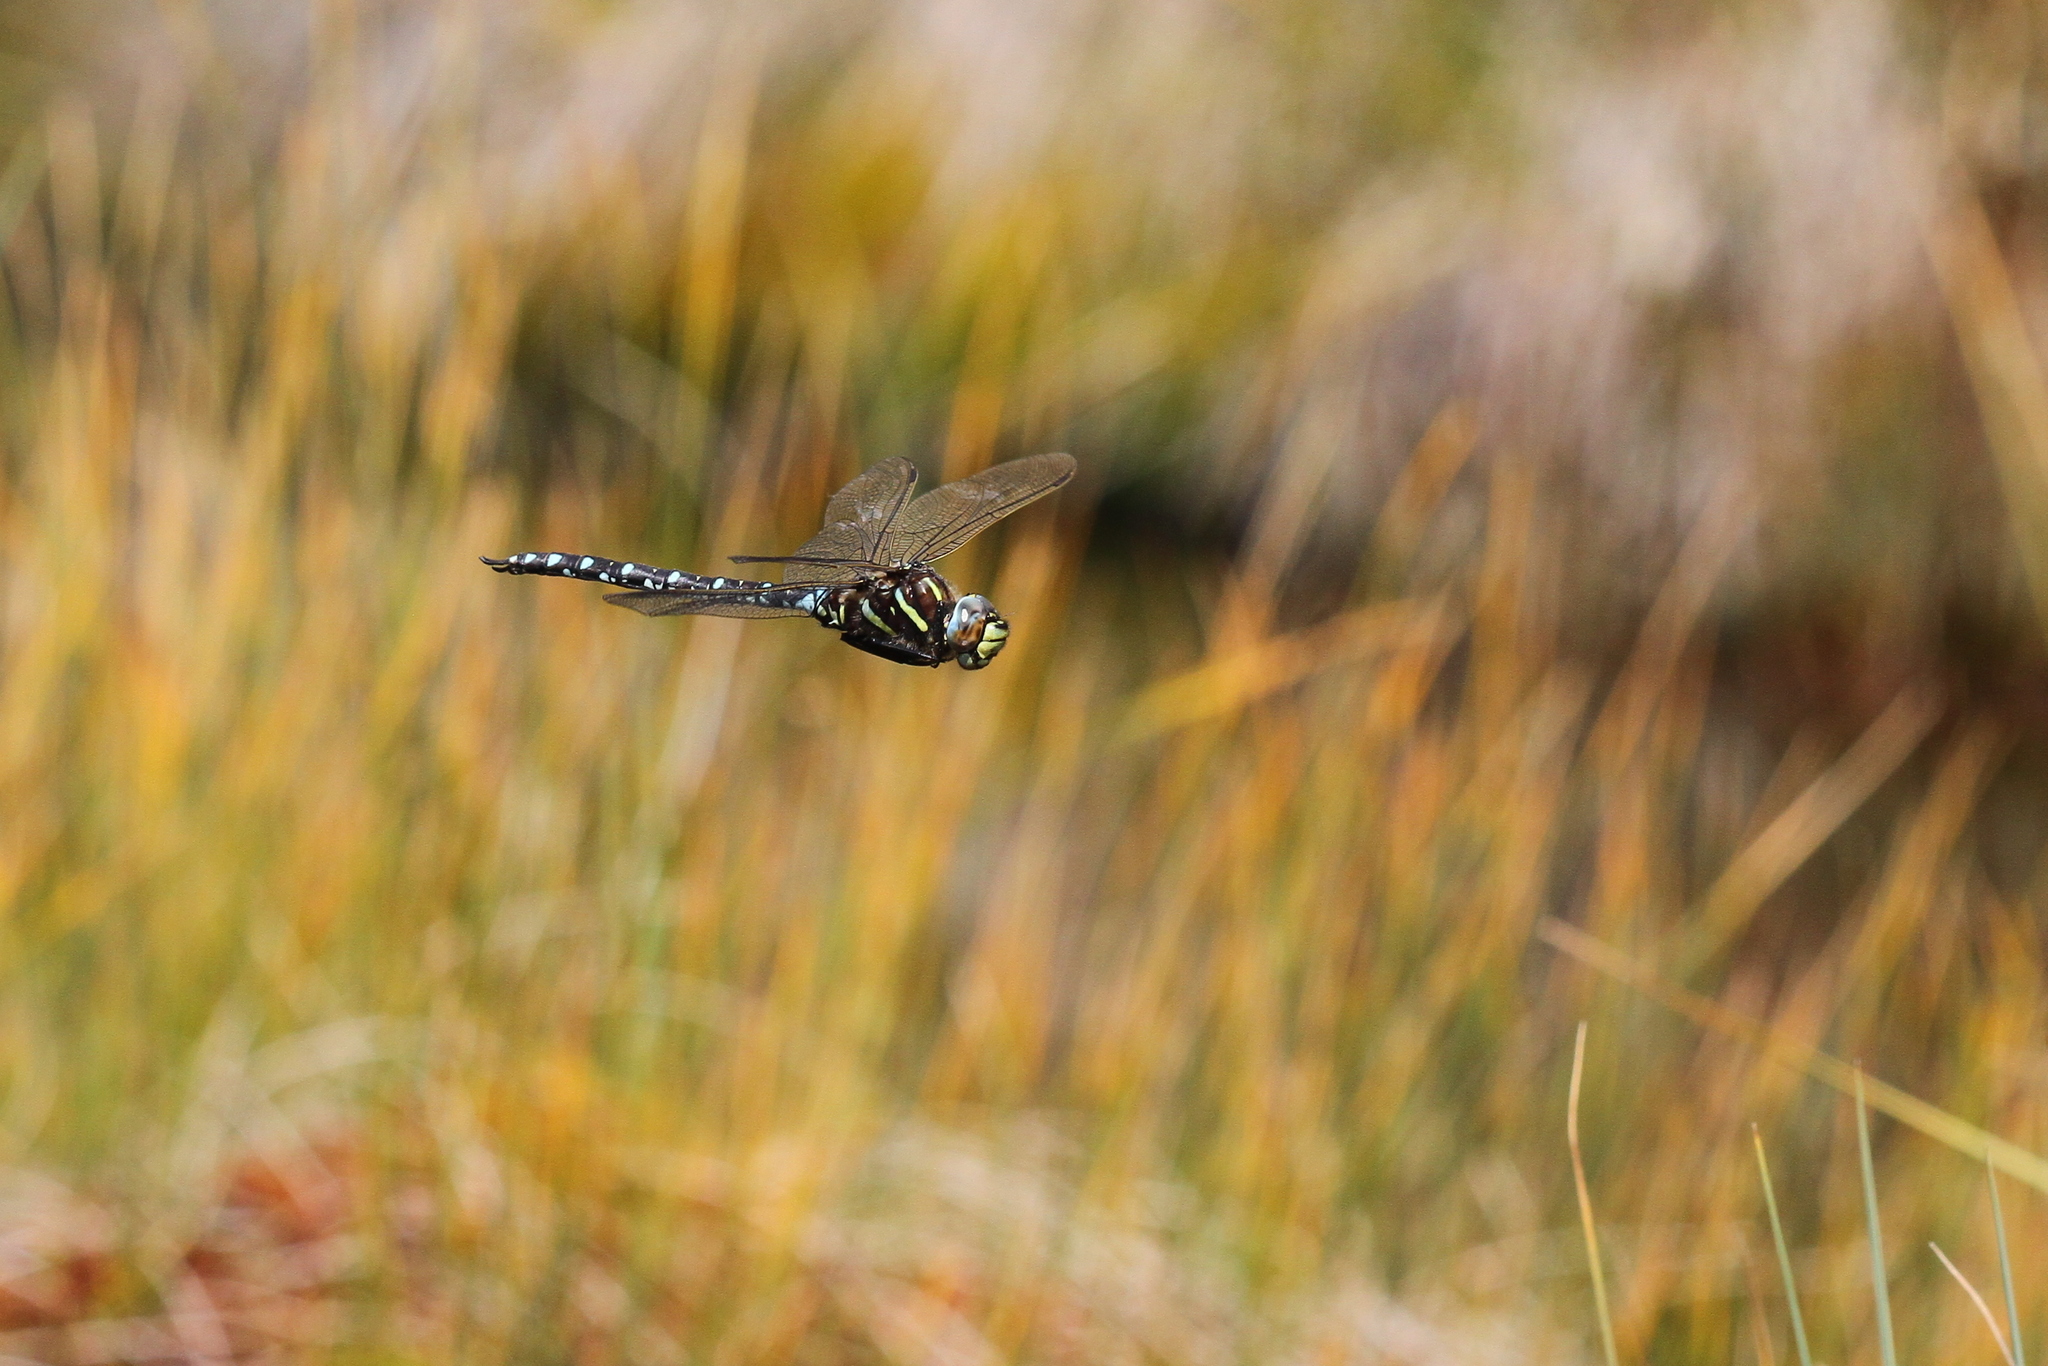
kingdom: Animalia
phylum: Arthropoda
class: Insecta
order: Odonata
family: Aeshnidae
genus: Aeshna
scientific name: Aeshna juncea
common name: Moorland hawker
